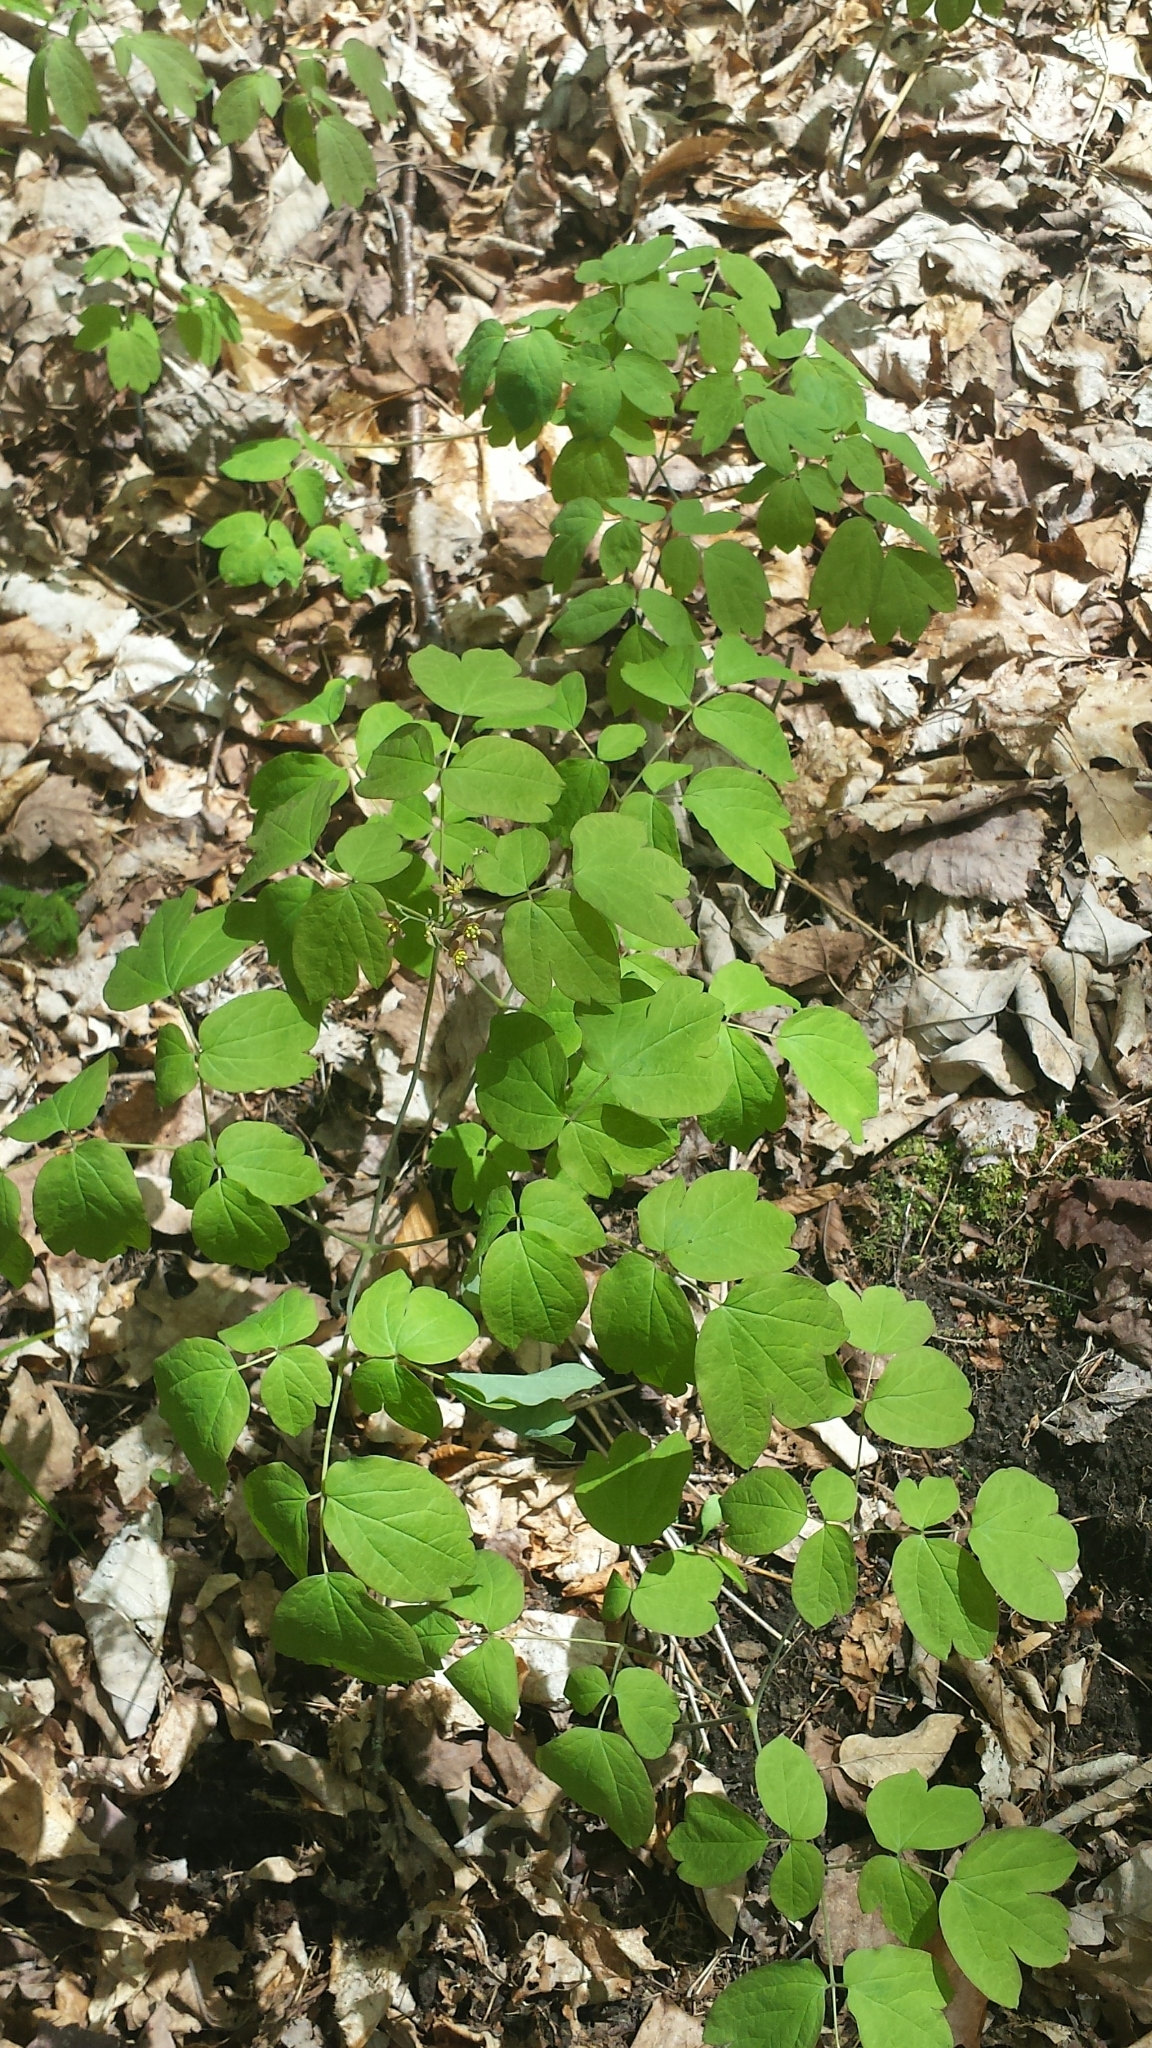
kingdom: Plantae
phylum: Tracheophyta
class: Magnoliopsida
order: Ranunculales
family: Berberidaceae
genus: Caulophyllum
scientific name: Caulophyllum giganteum
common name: Blue cohosh
